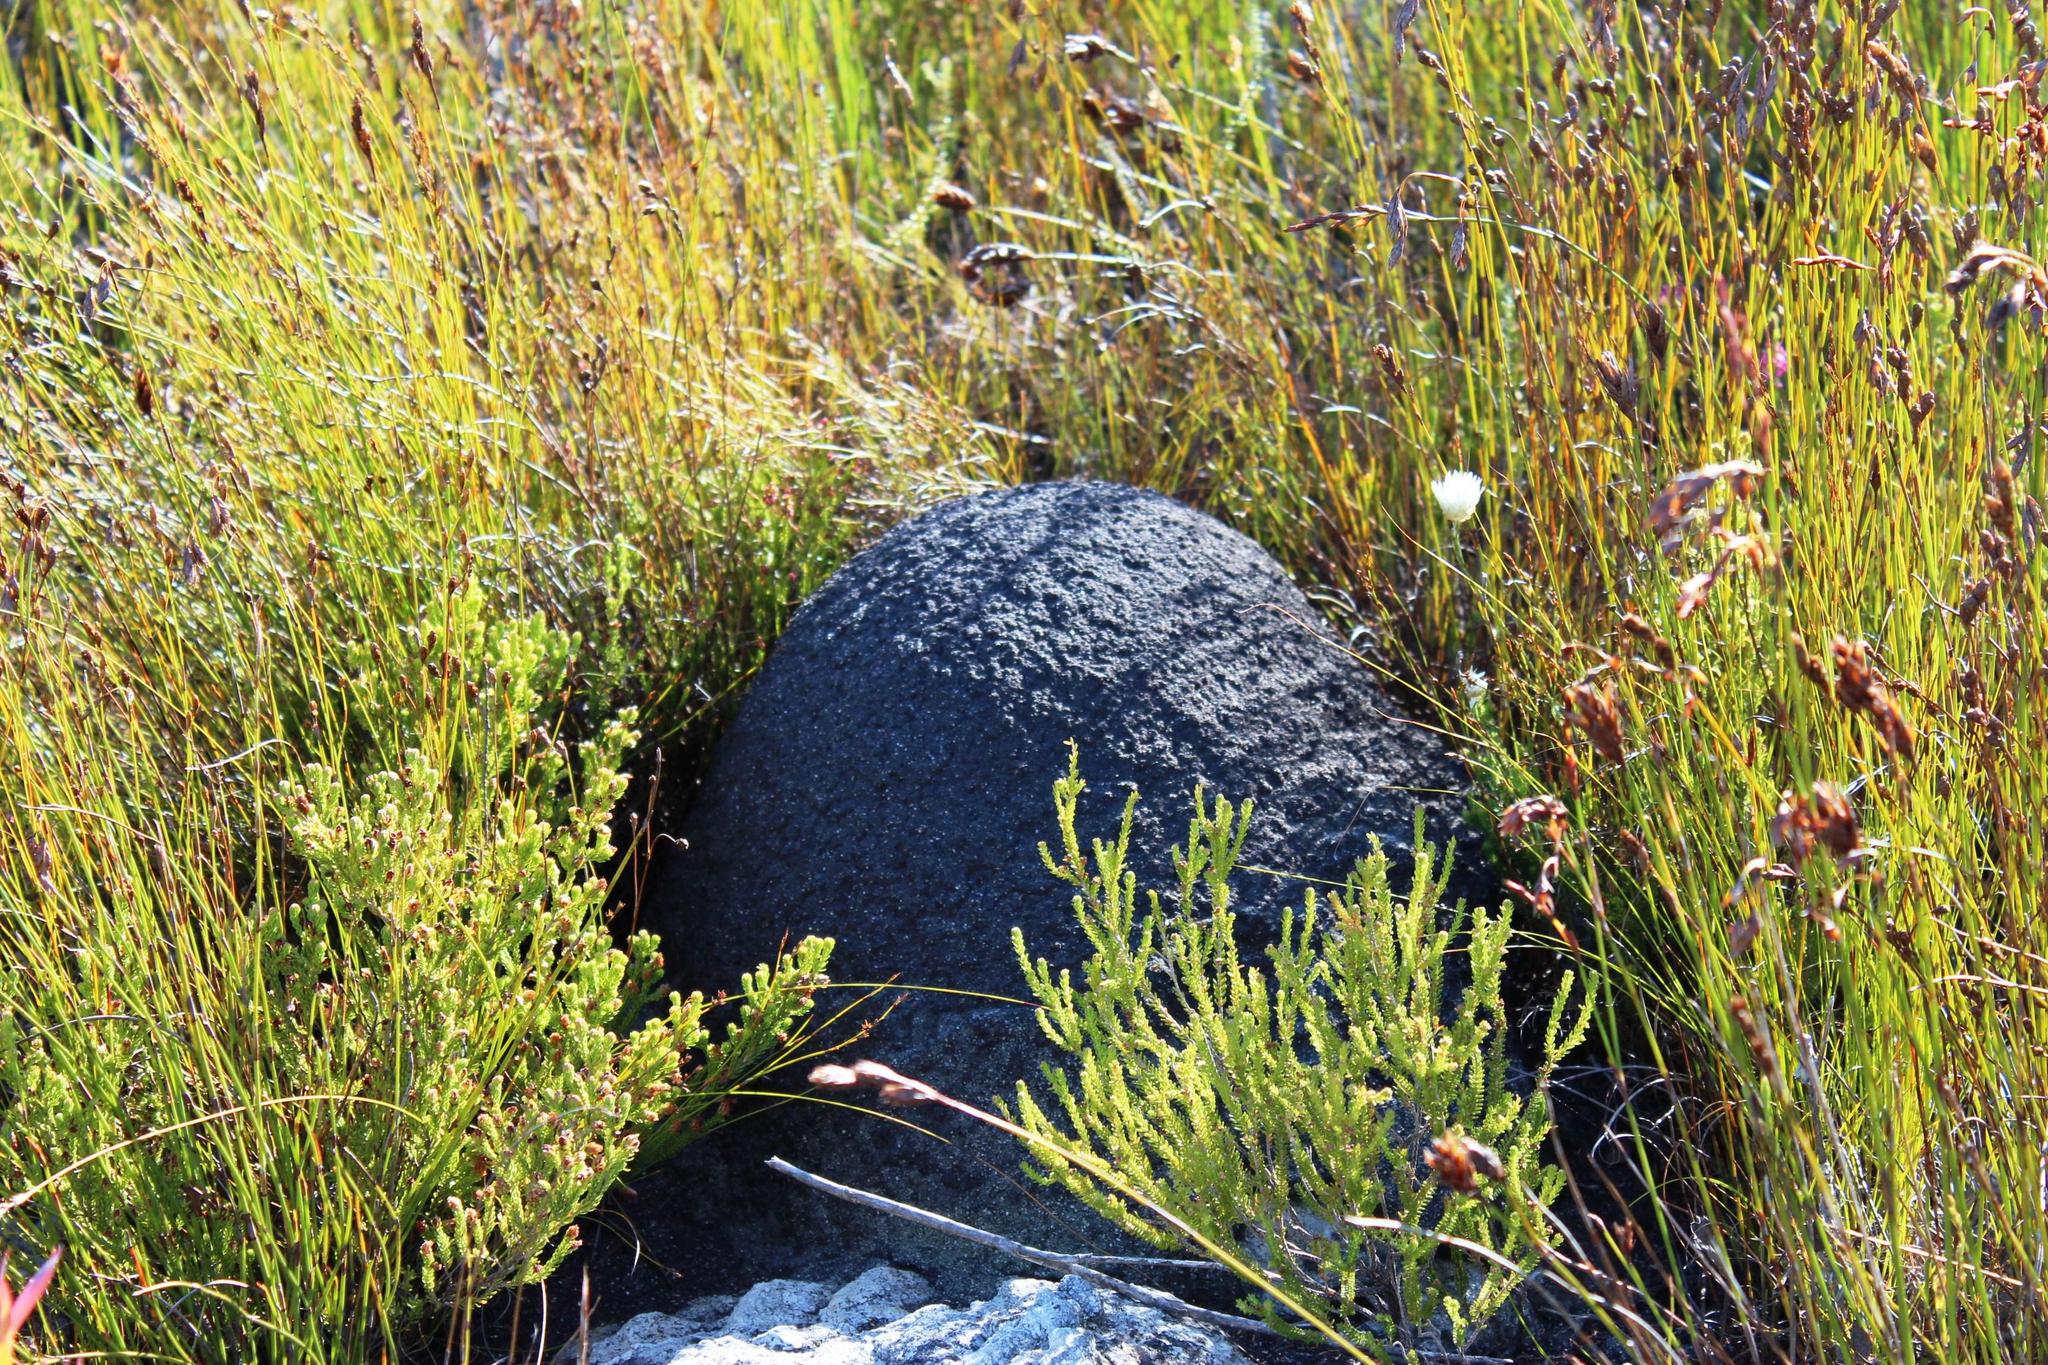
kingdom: Animalia
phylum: Arthropoda
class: Insecta
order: Blattodea
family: Termitidae
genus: Amitermes
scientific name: Amitermes hastatus
